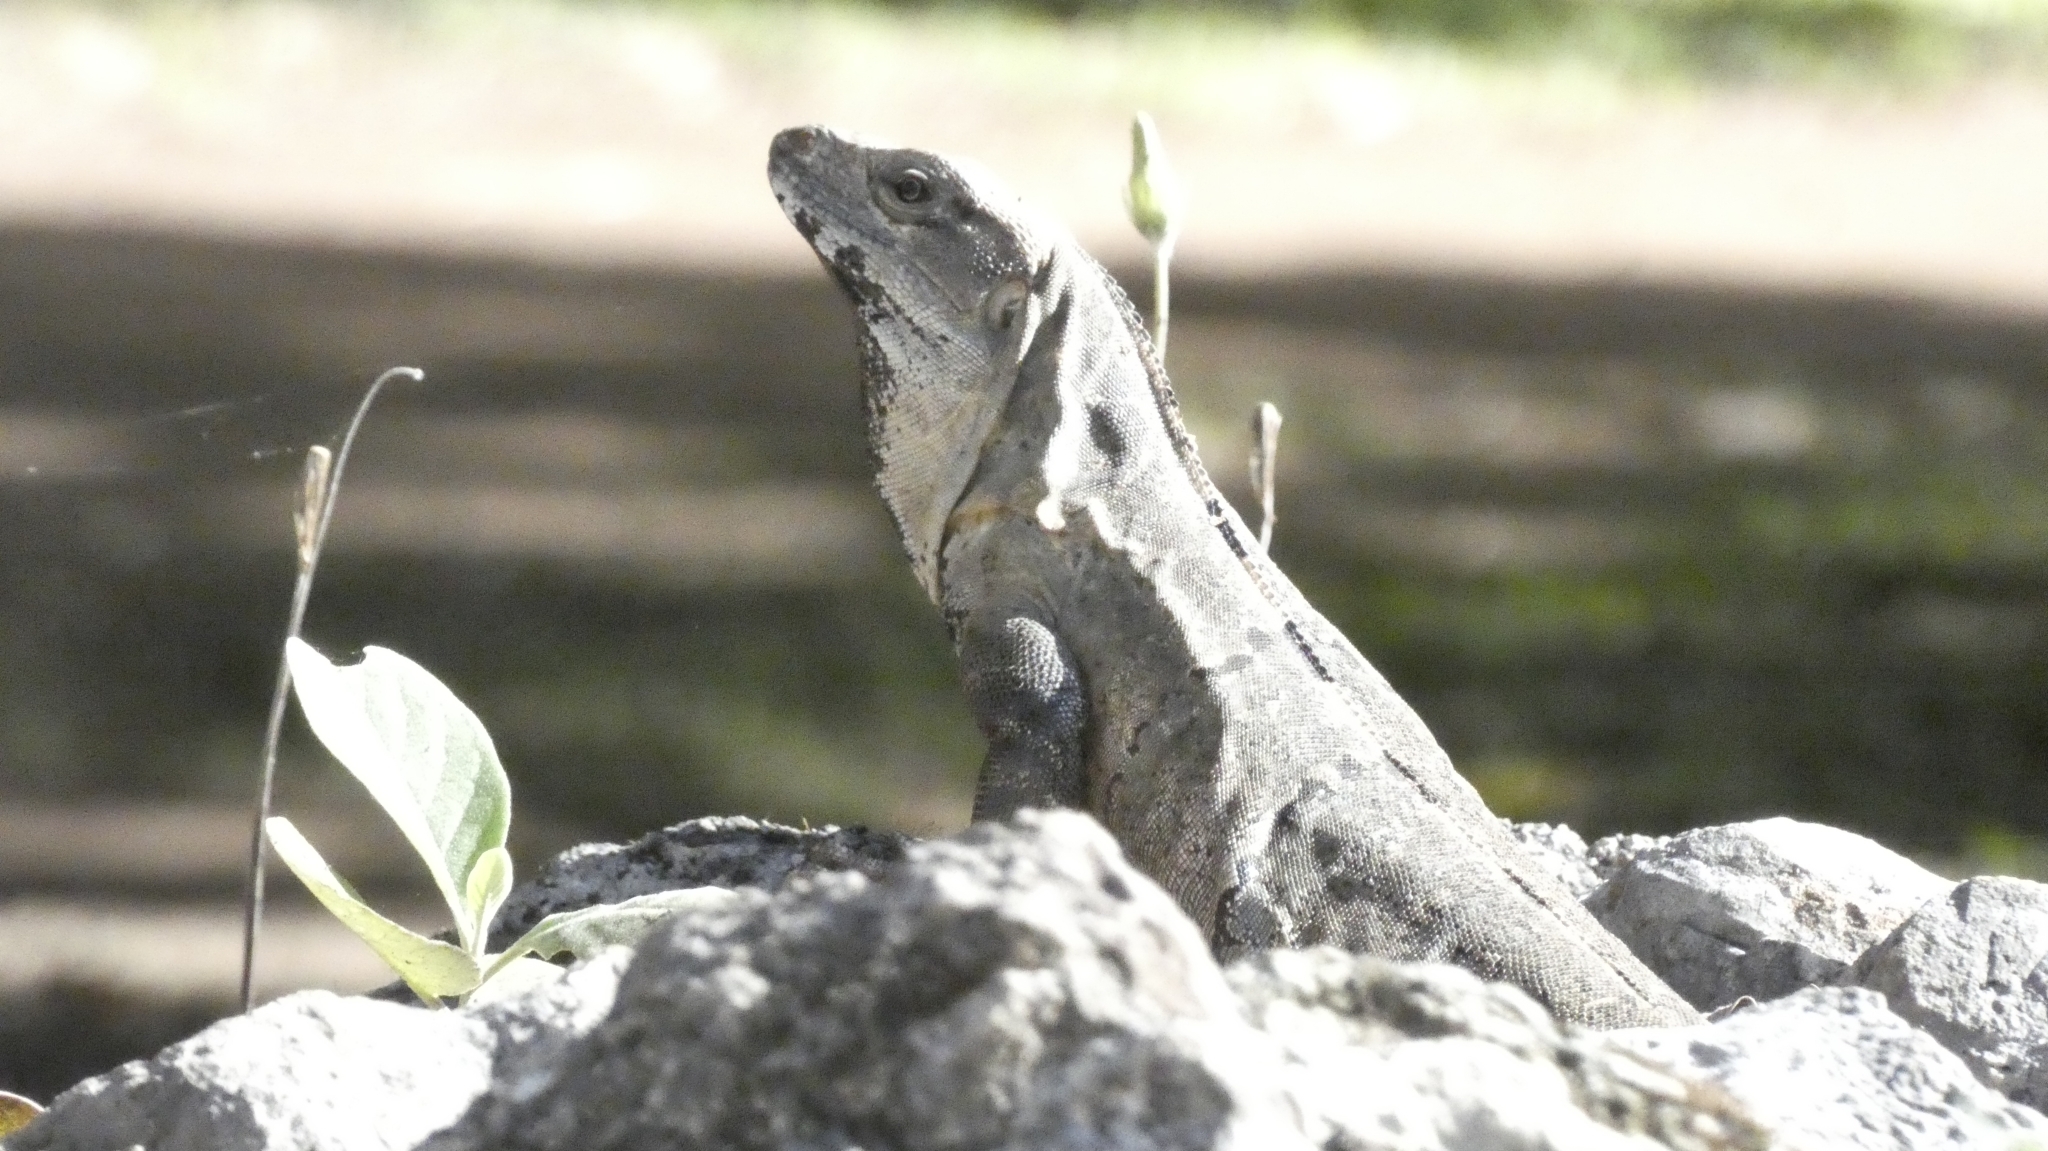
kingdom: Animalia
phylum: Chordata
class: Squamata
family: Iguanidae
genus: Ctenosaura
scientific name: Ctenosaura similis
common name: Black spiny-tailed iguana
